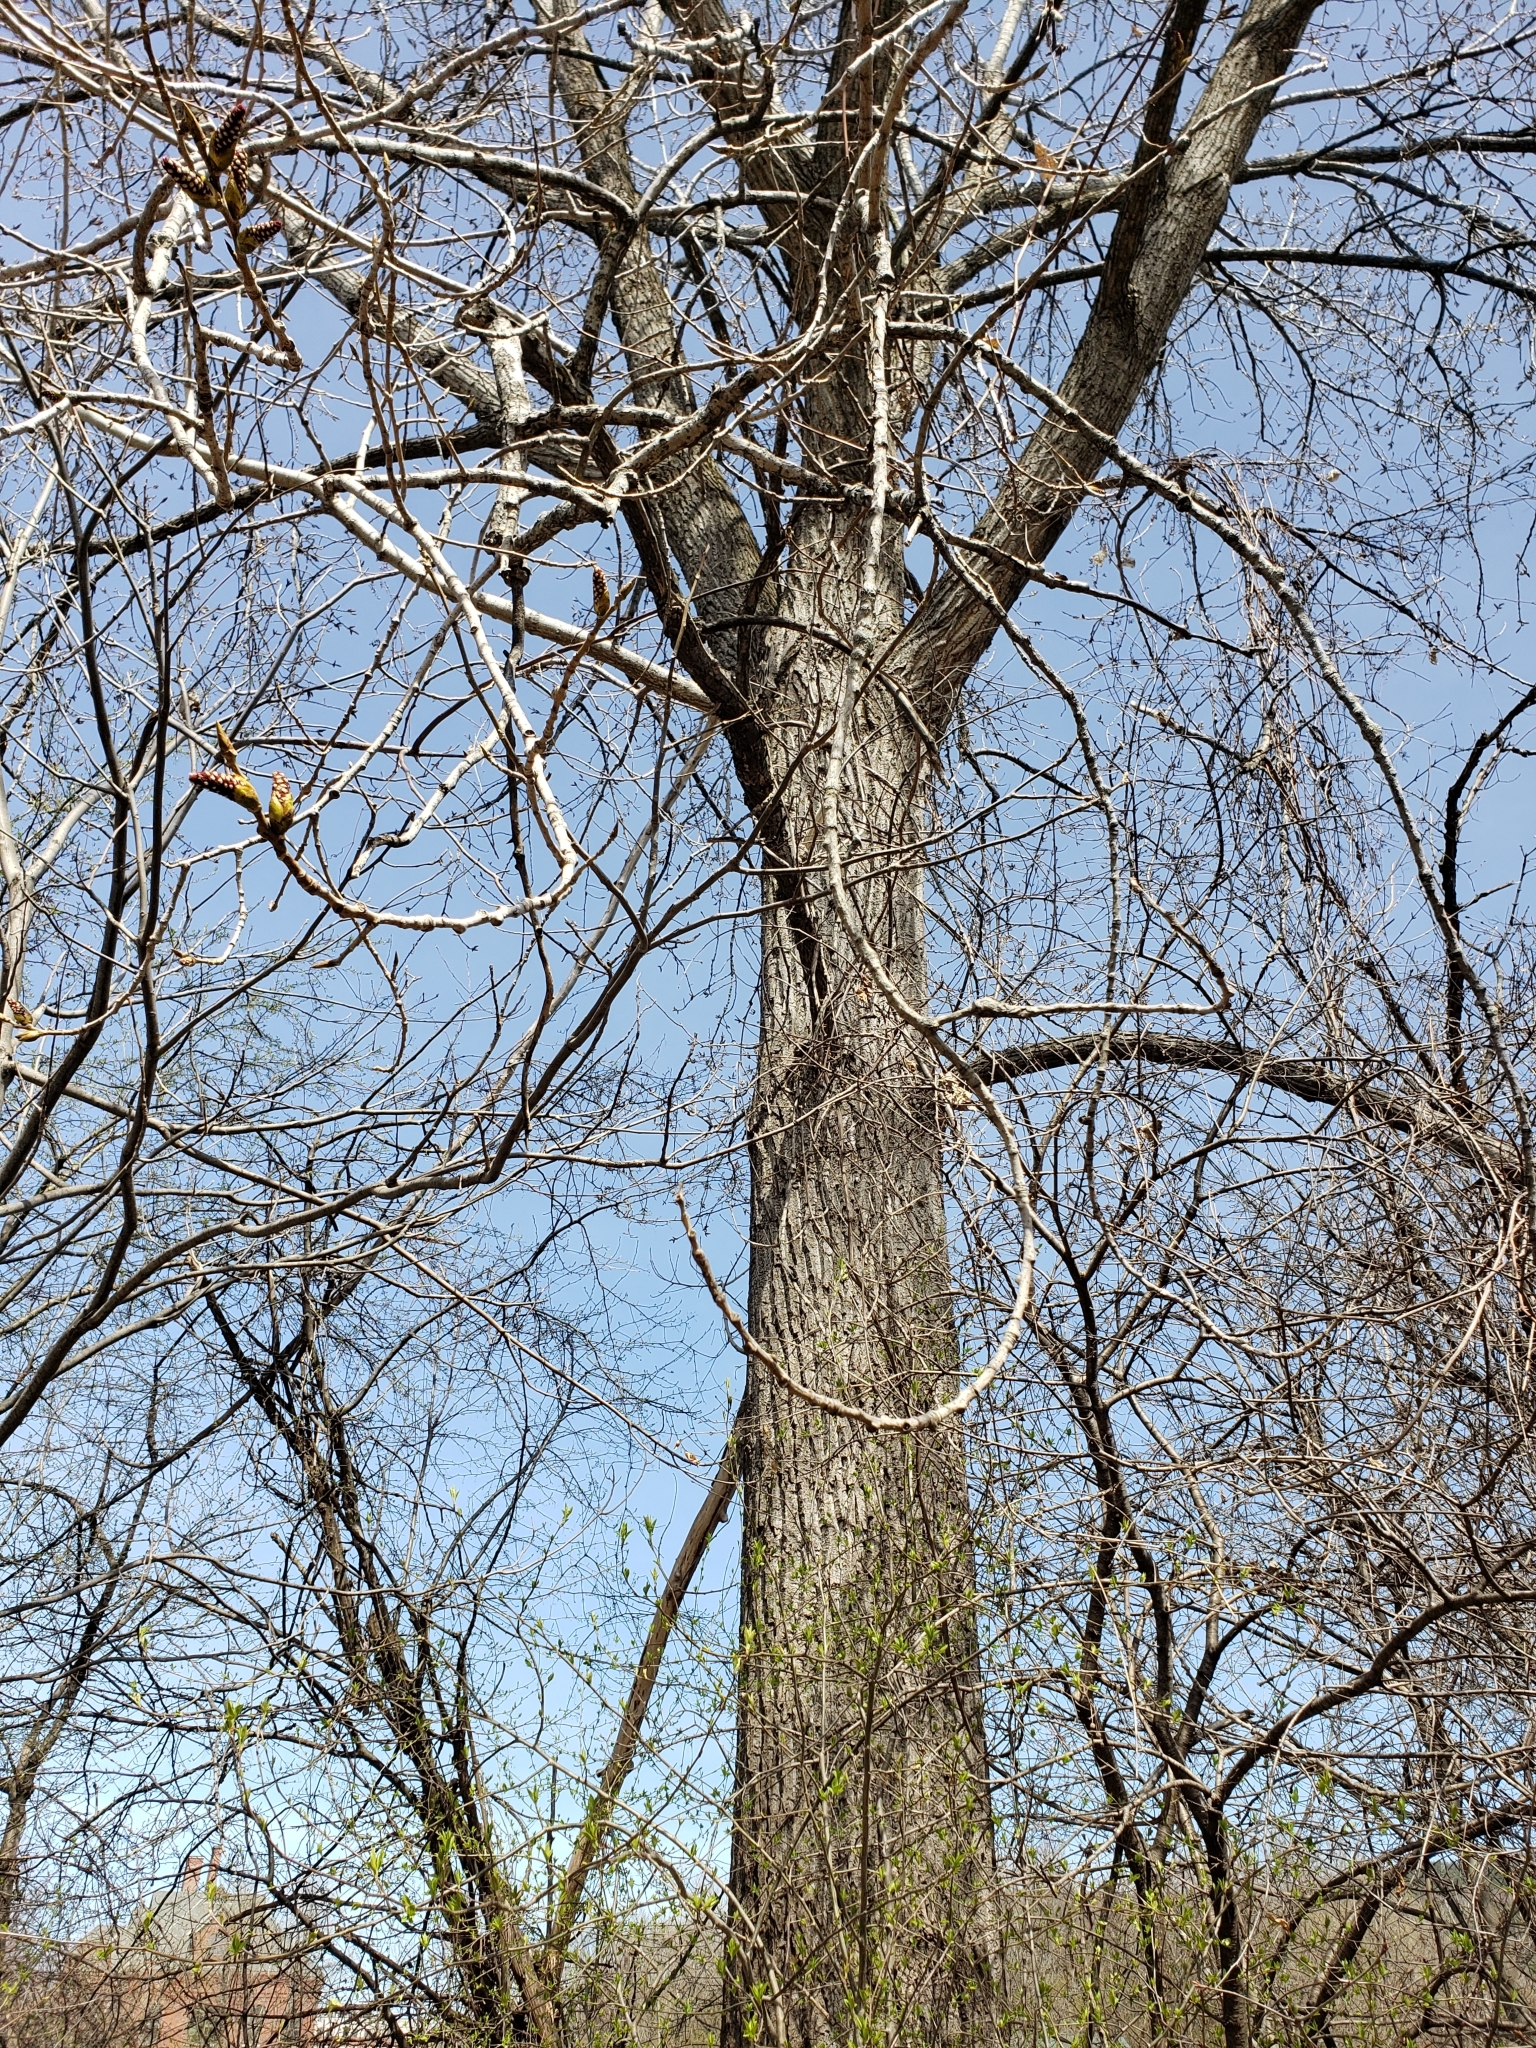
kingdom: Plantae
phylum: Tracheophyta
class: Magnoliopsida
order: Malpighiales
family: Salicaceae
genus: Populus
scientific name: Populus deltoides
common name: Eastern cottonwood
